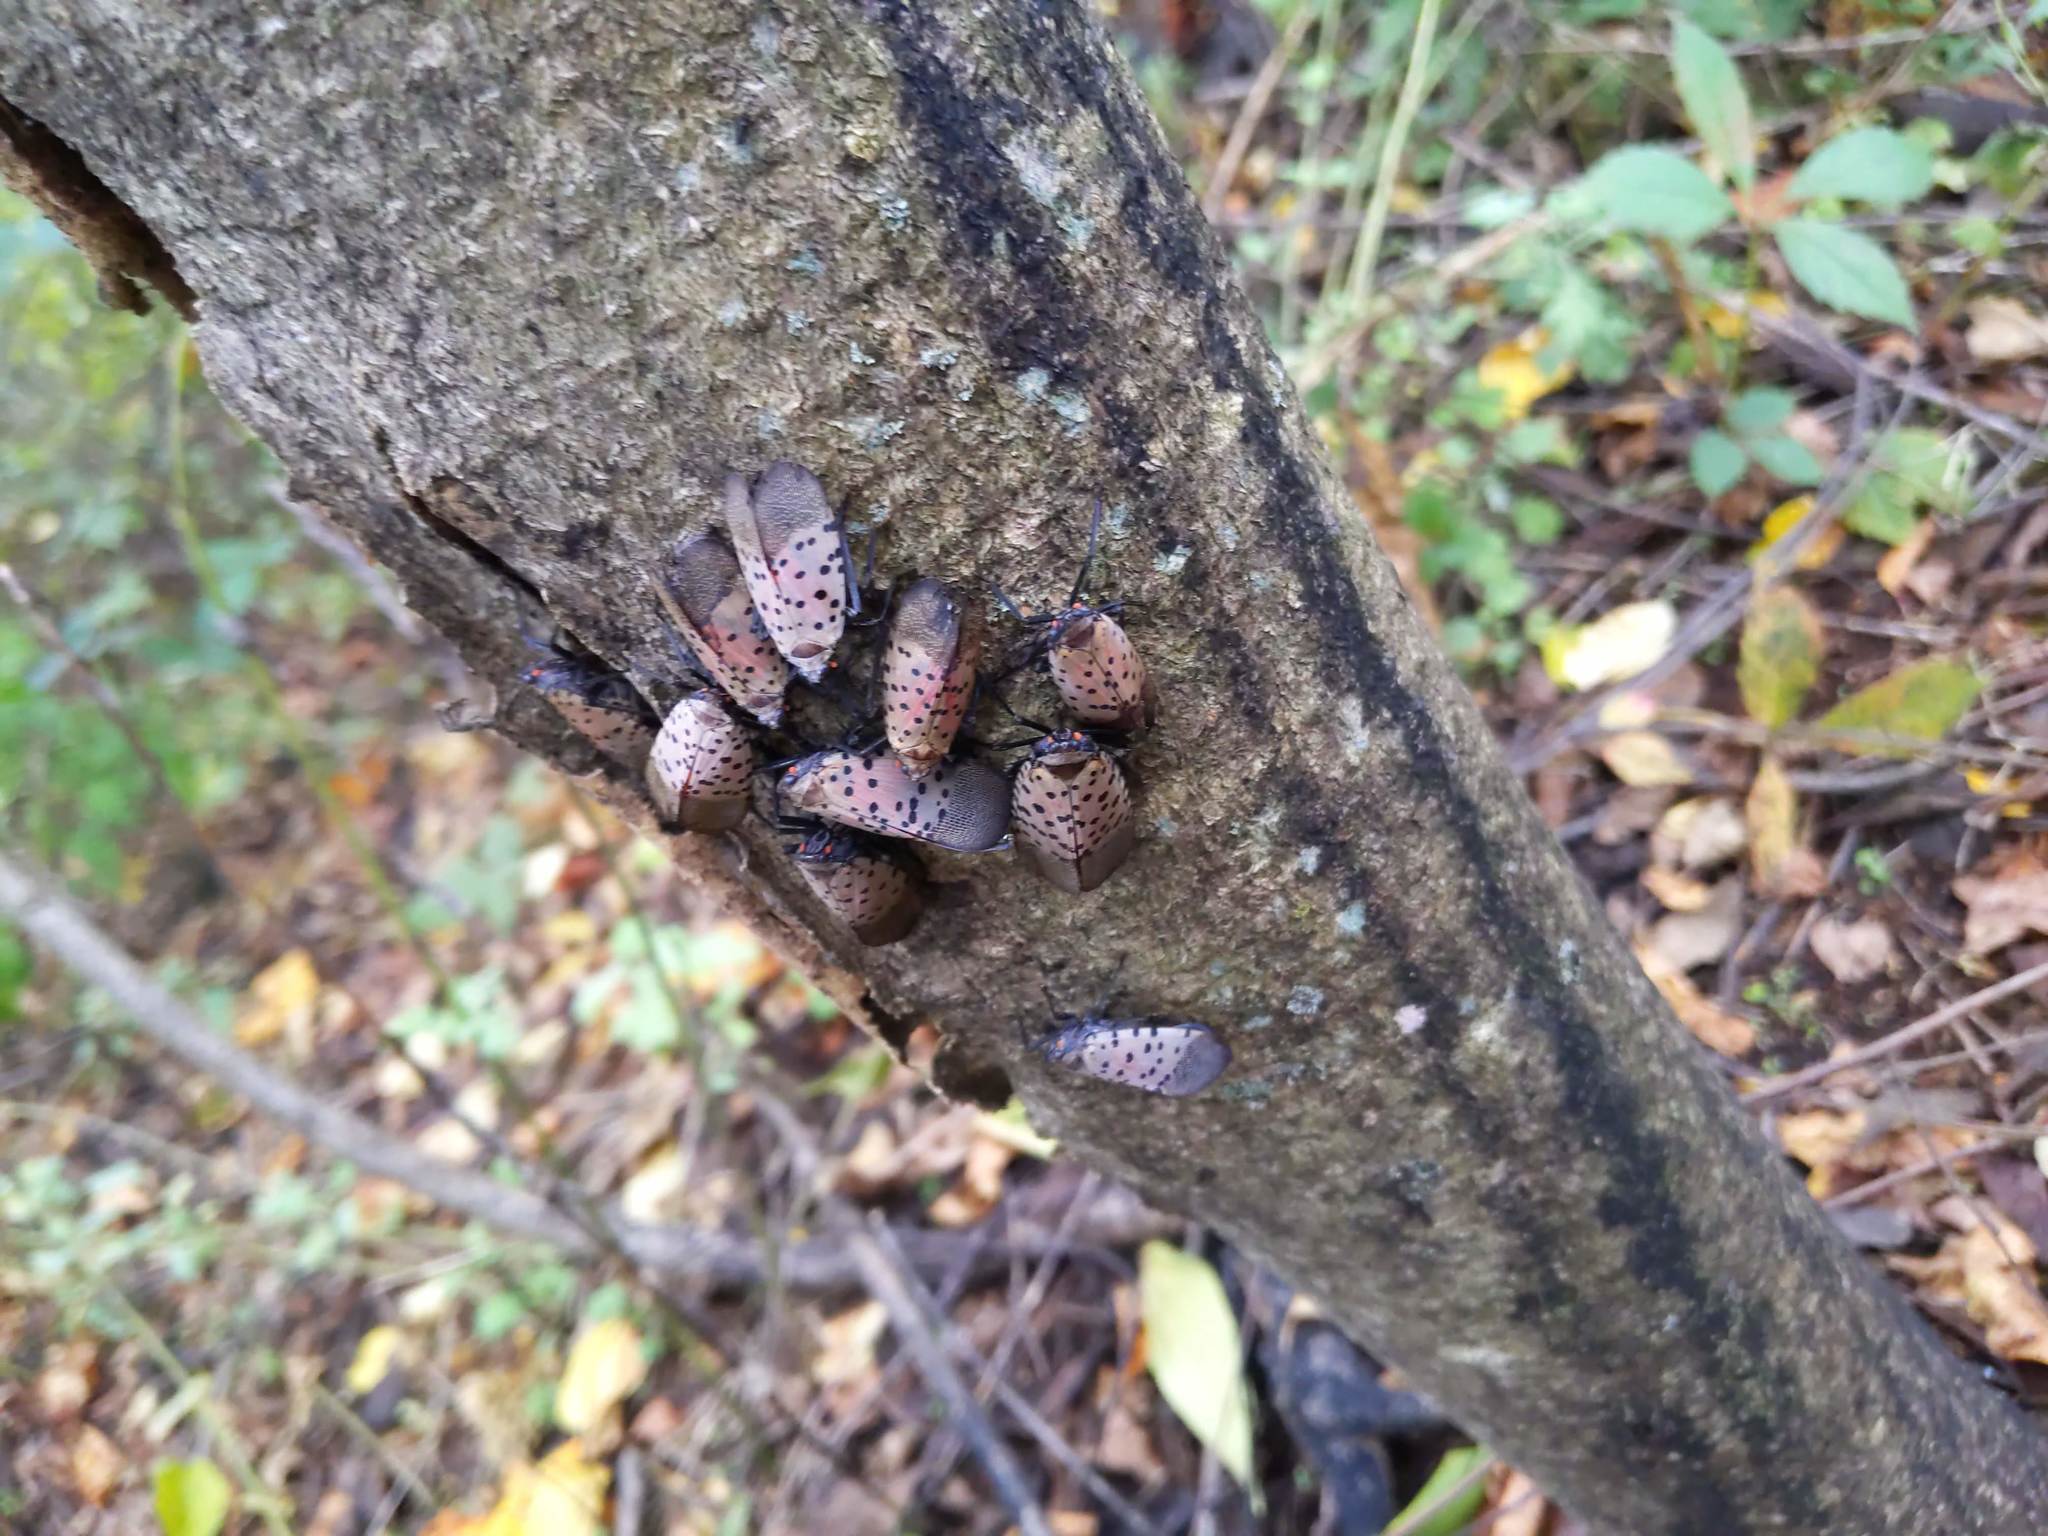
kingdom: Animalia
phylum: Arthropoda
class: Insecta
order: Hemiptera
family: Fulgoridae
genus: Lycorma
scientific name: Lycorma delicatula
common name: Spotted lanternfly
